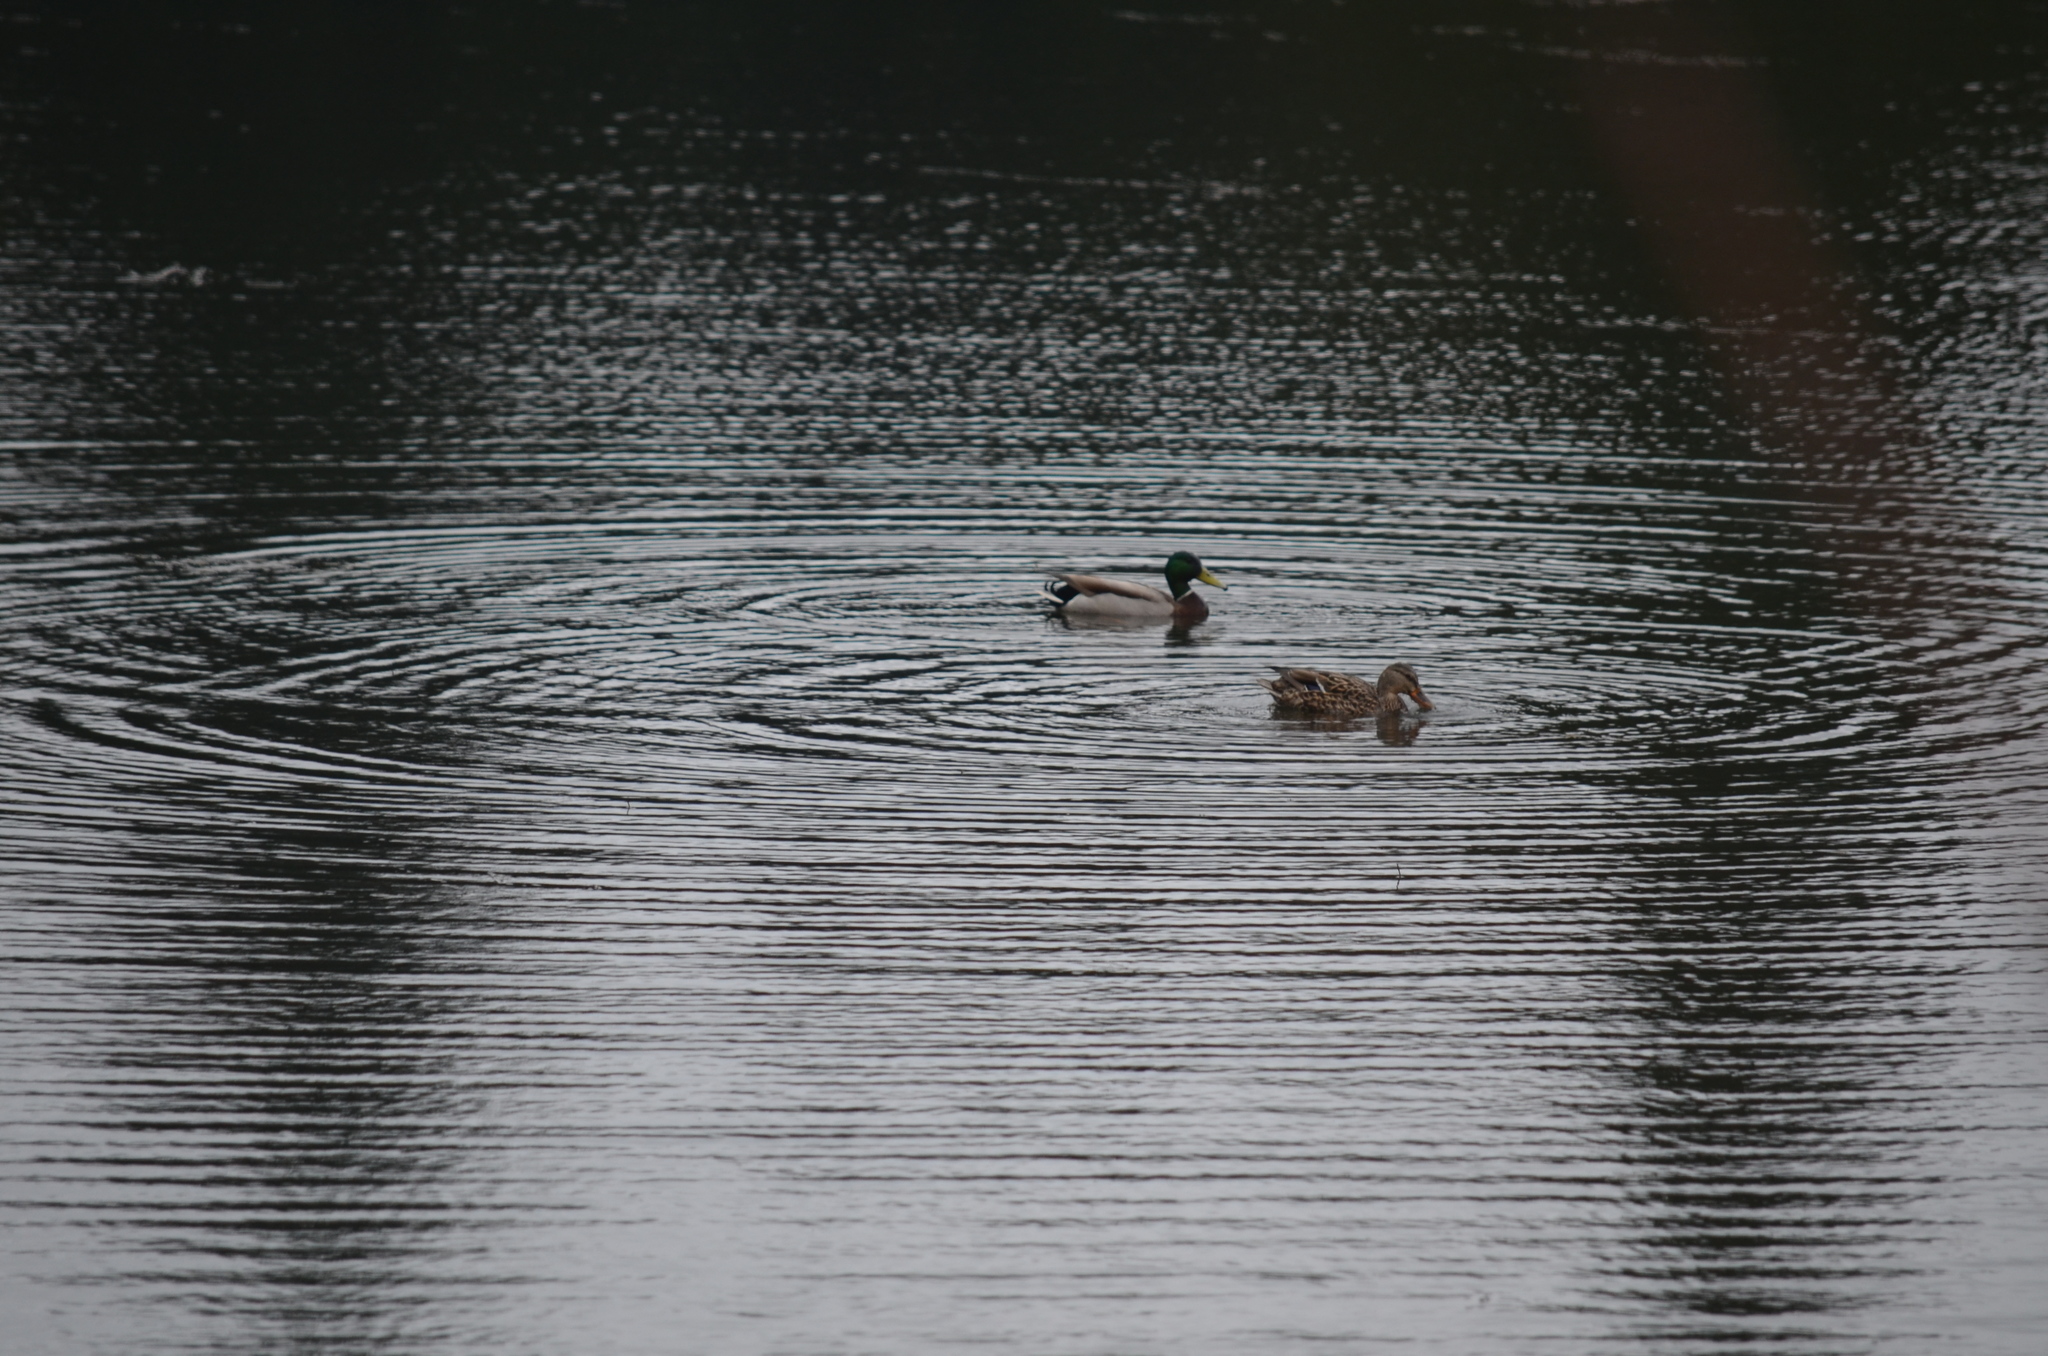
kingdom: Animalia
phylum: Chordata
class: Aves
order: Anseriformes
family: Anatidae
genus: Anas
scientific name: Anas platyrhynchos
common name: Mallard
